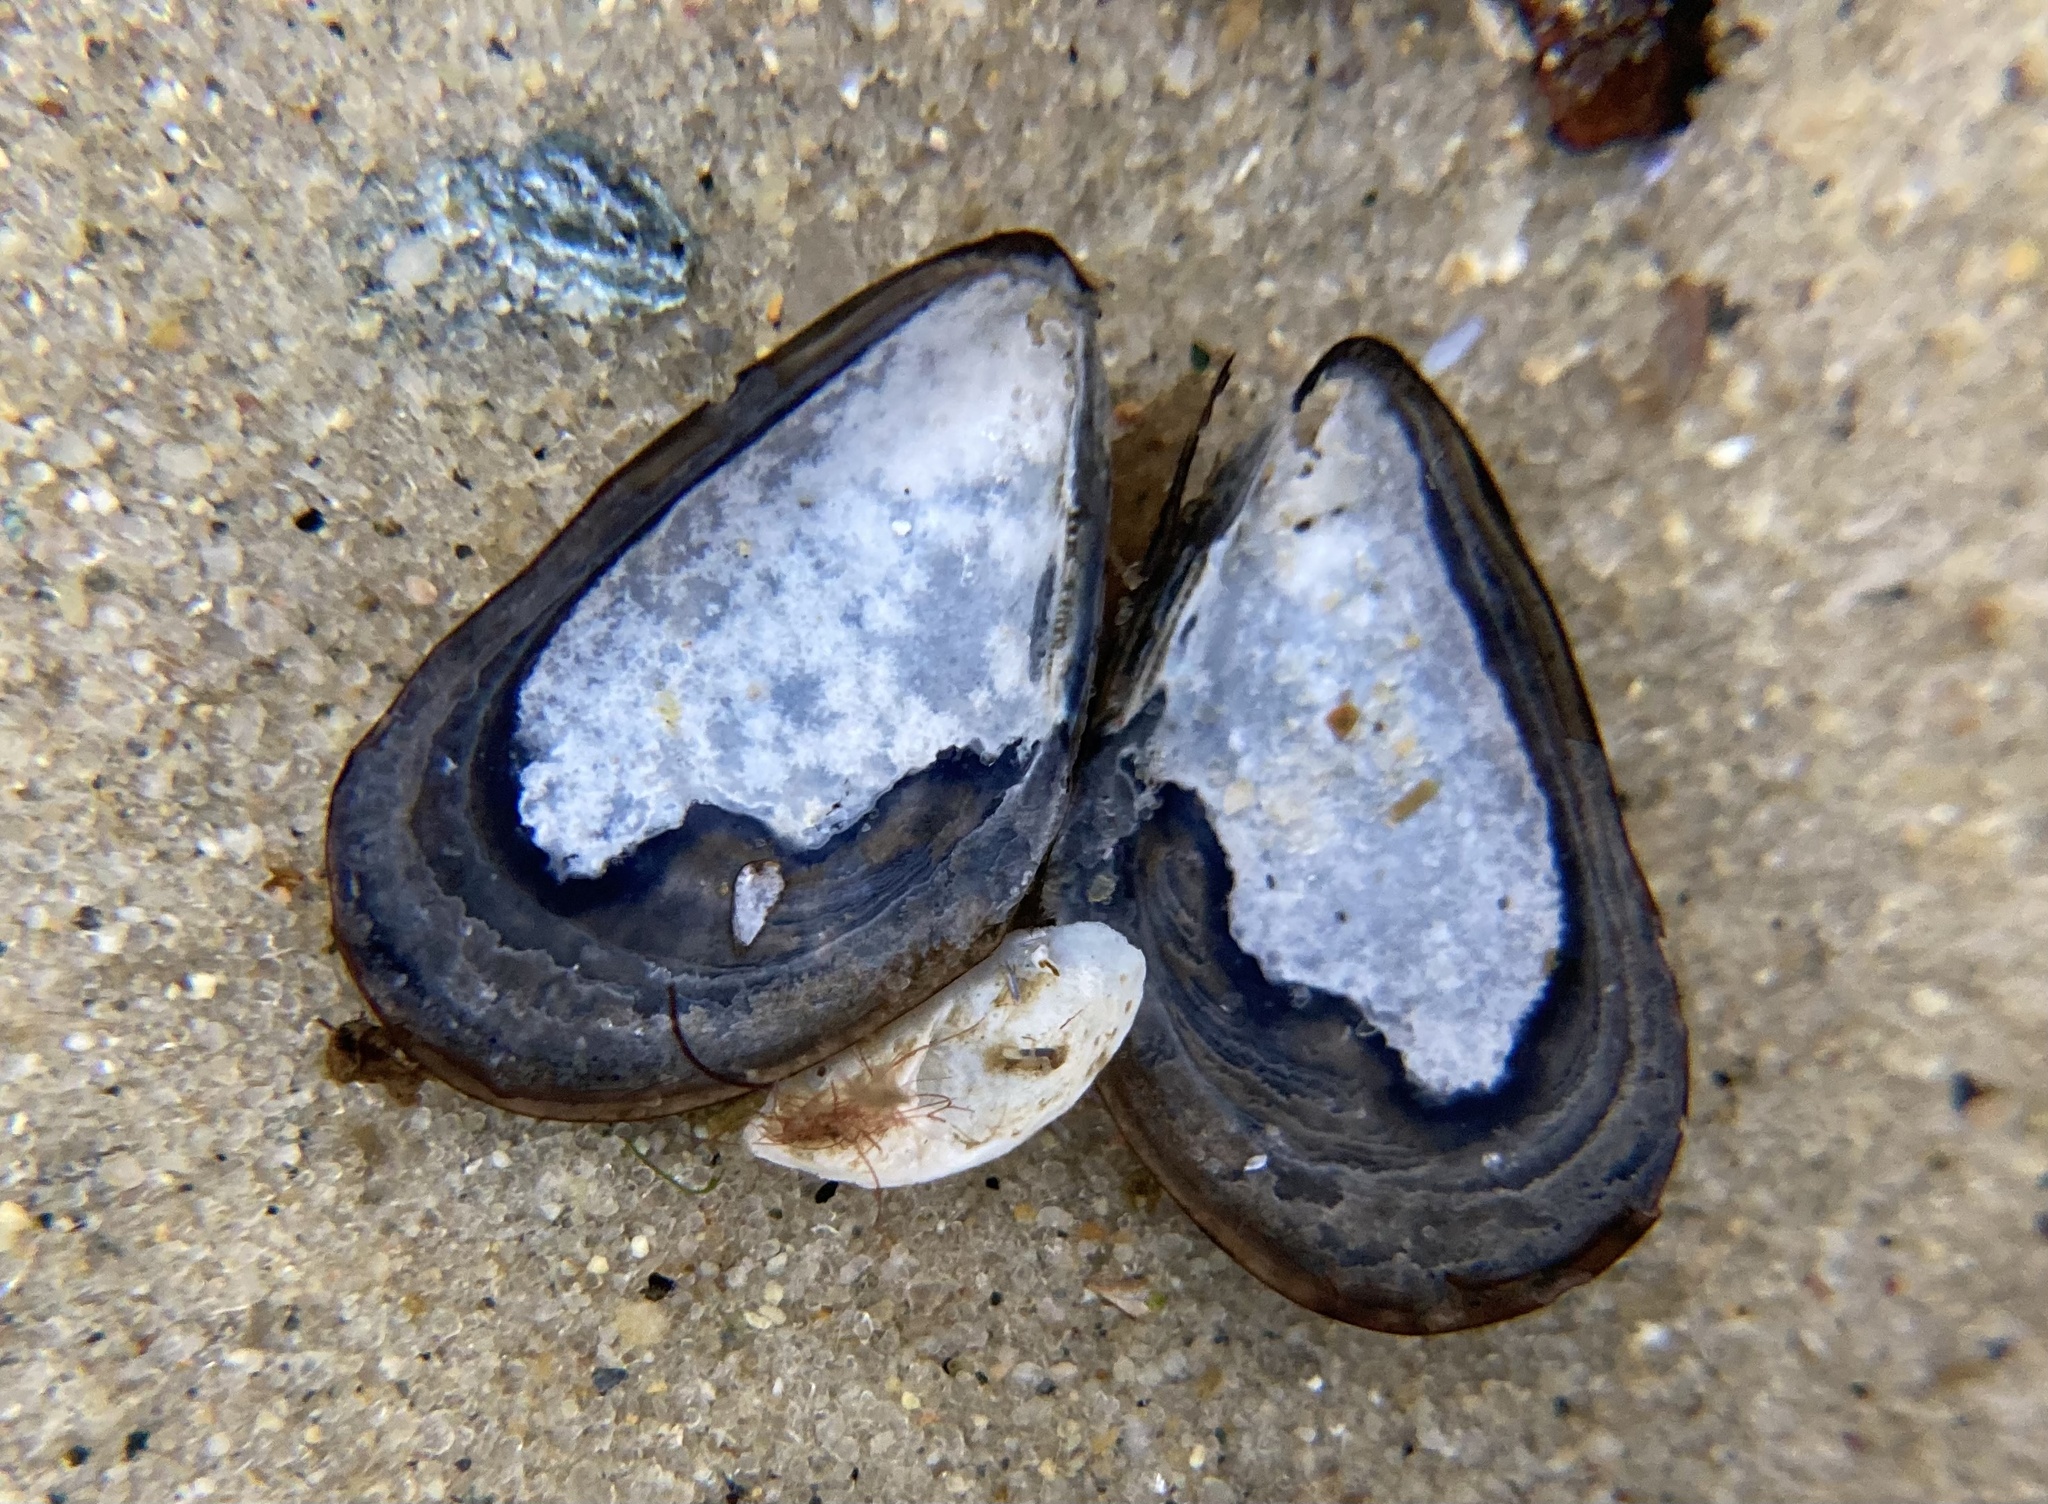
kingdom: Animalia
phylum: Mollusca
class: Bivalvia
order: Mytilida
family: Mytilidae
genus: Mytilus
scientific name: Mytilus edulis
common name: Blue mussel
